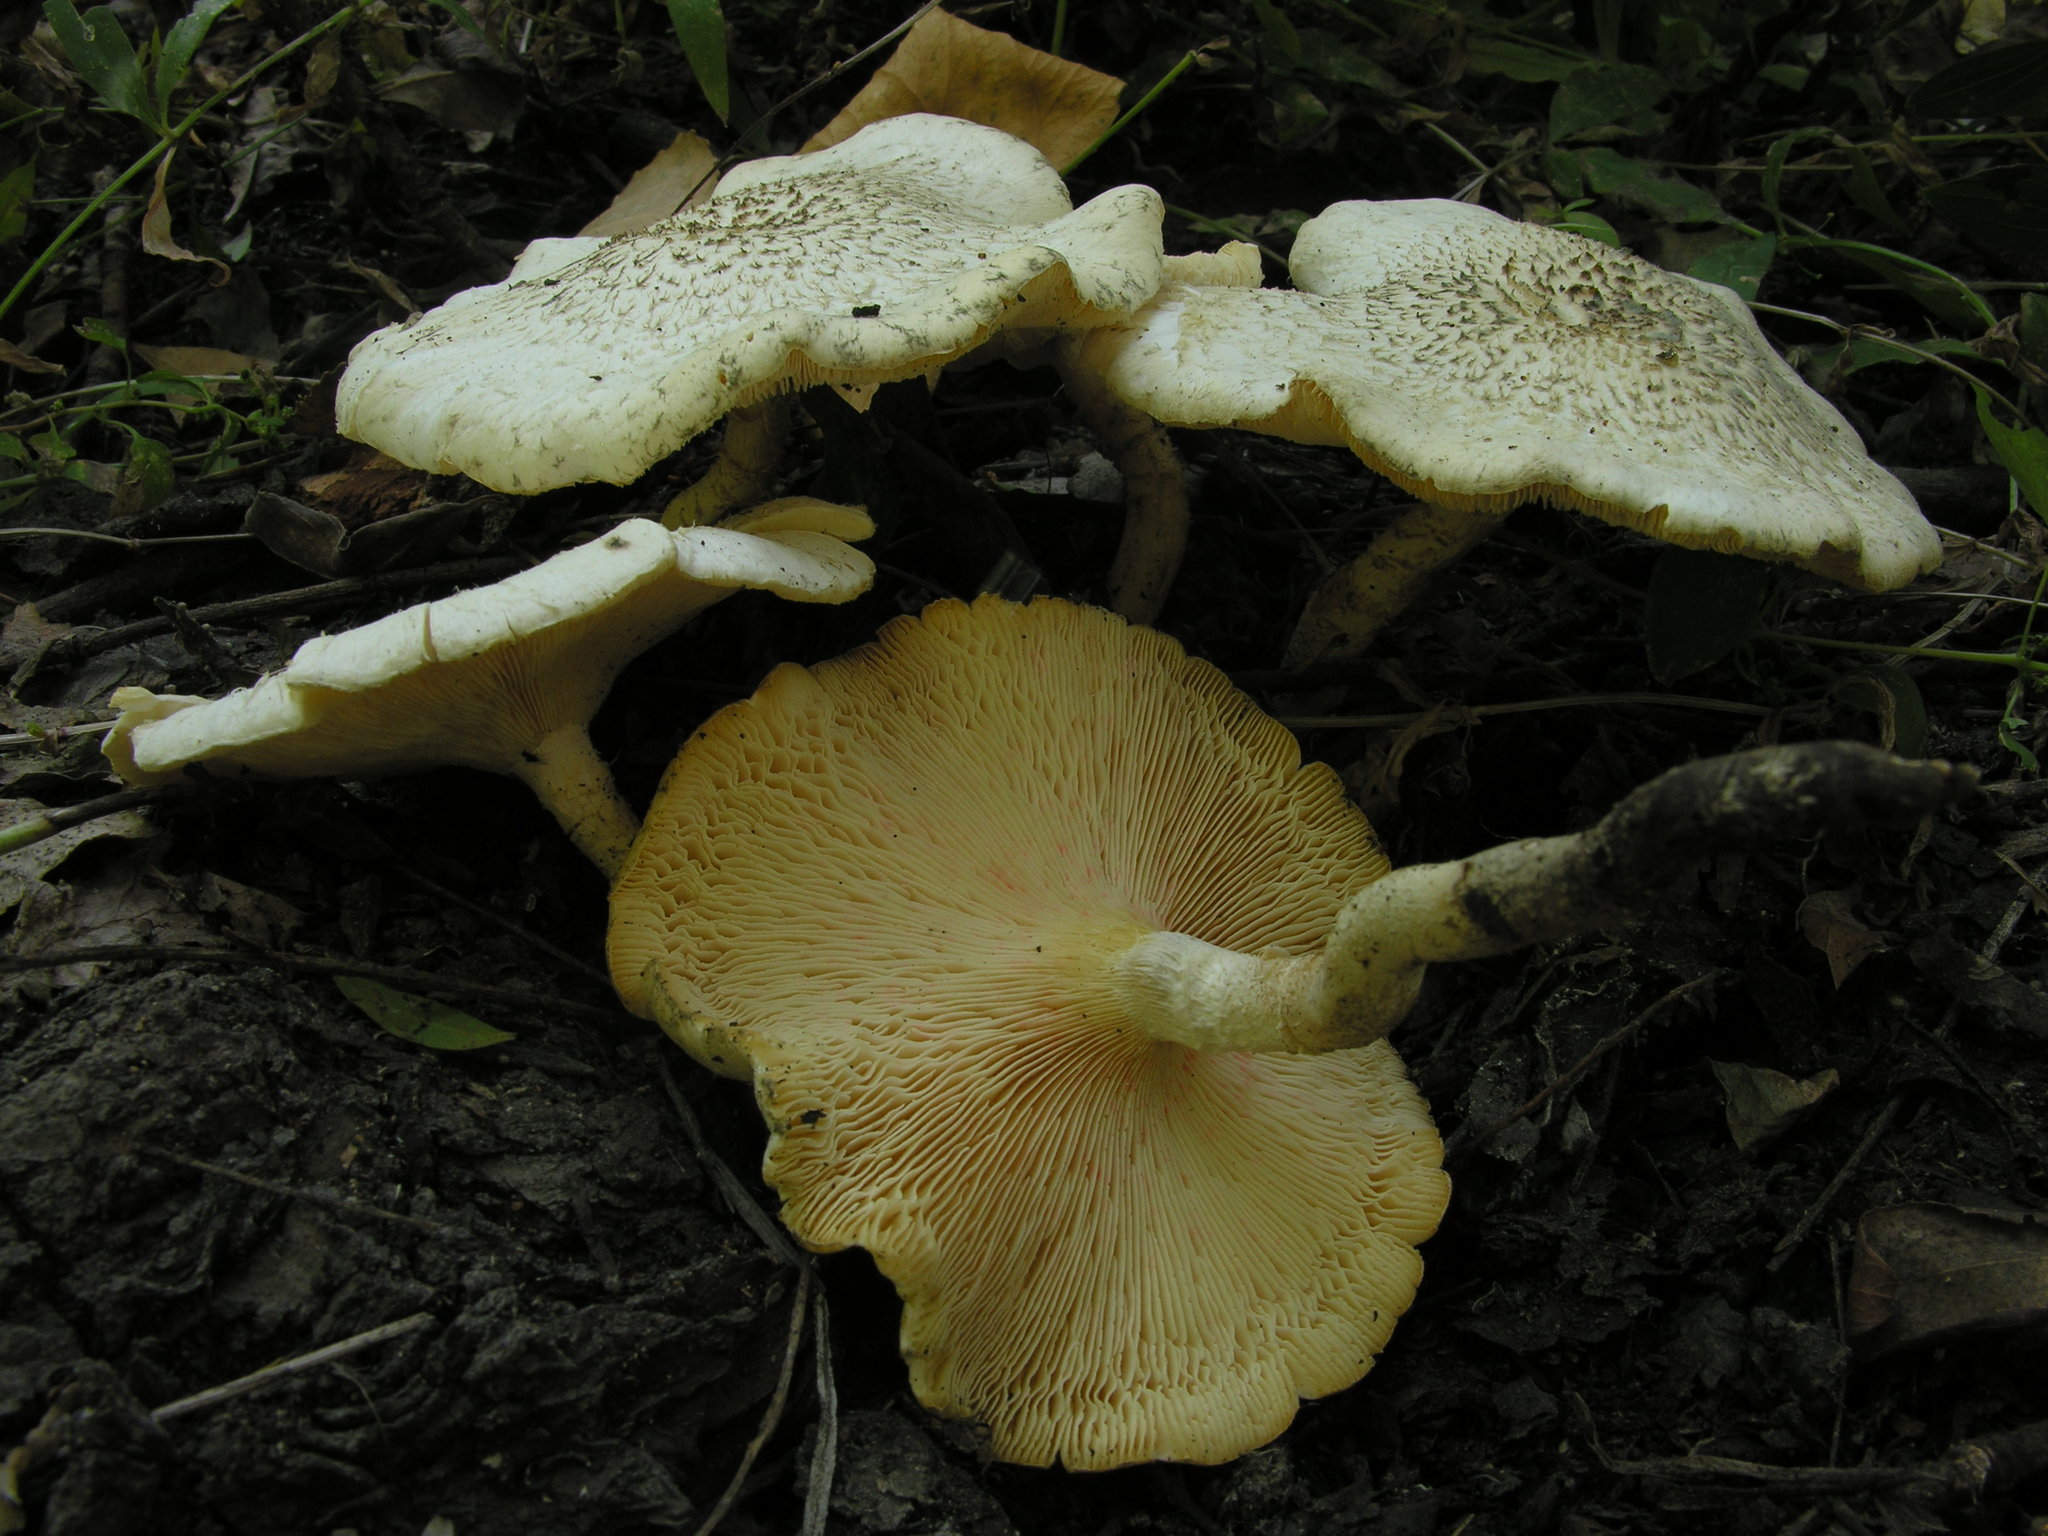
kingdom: Fungi
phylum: Basidiomycota
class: Agaricomycetes
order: Polyporales
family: Polyporaceae
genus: Lentinus
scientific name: Lentinus tigrinus
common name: Tiger sawgill
